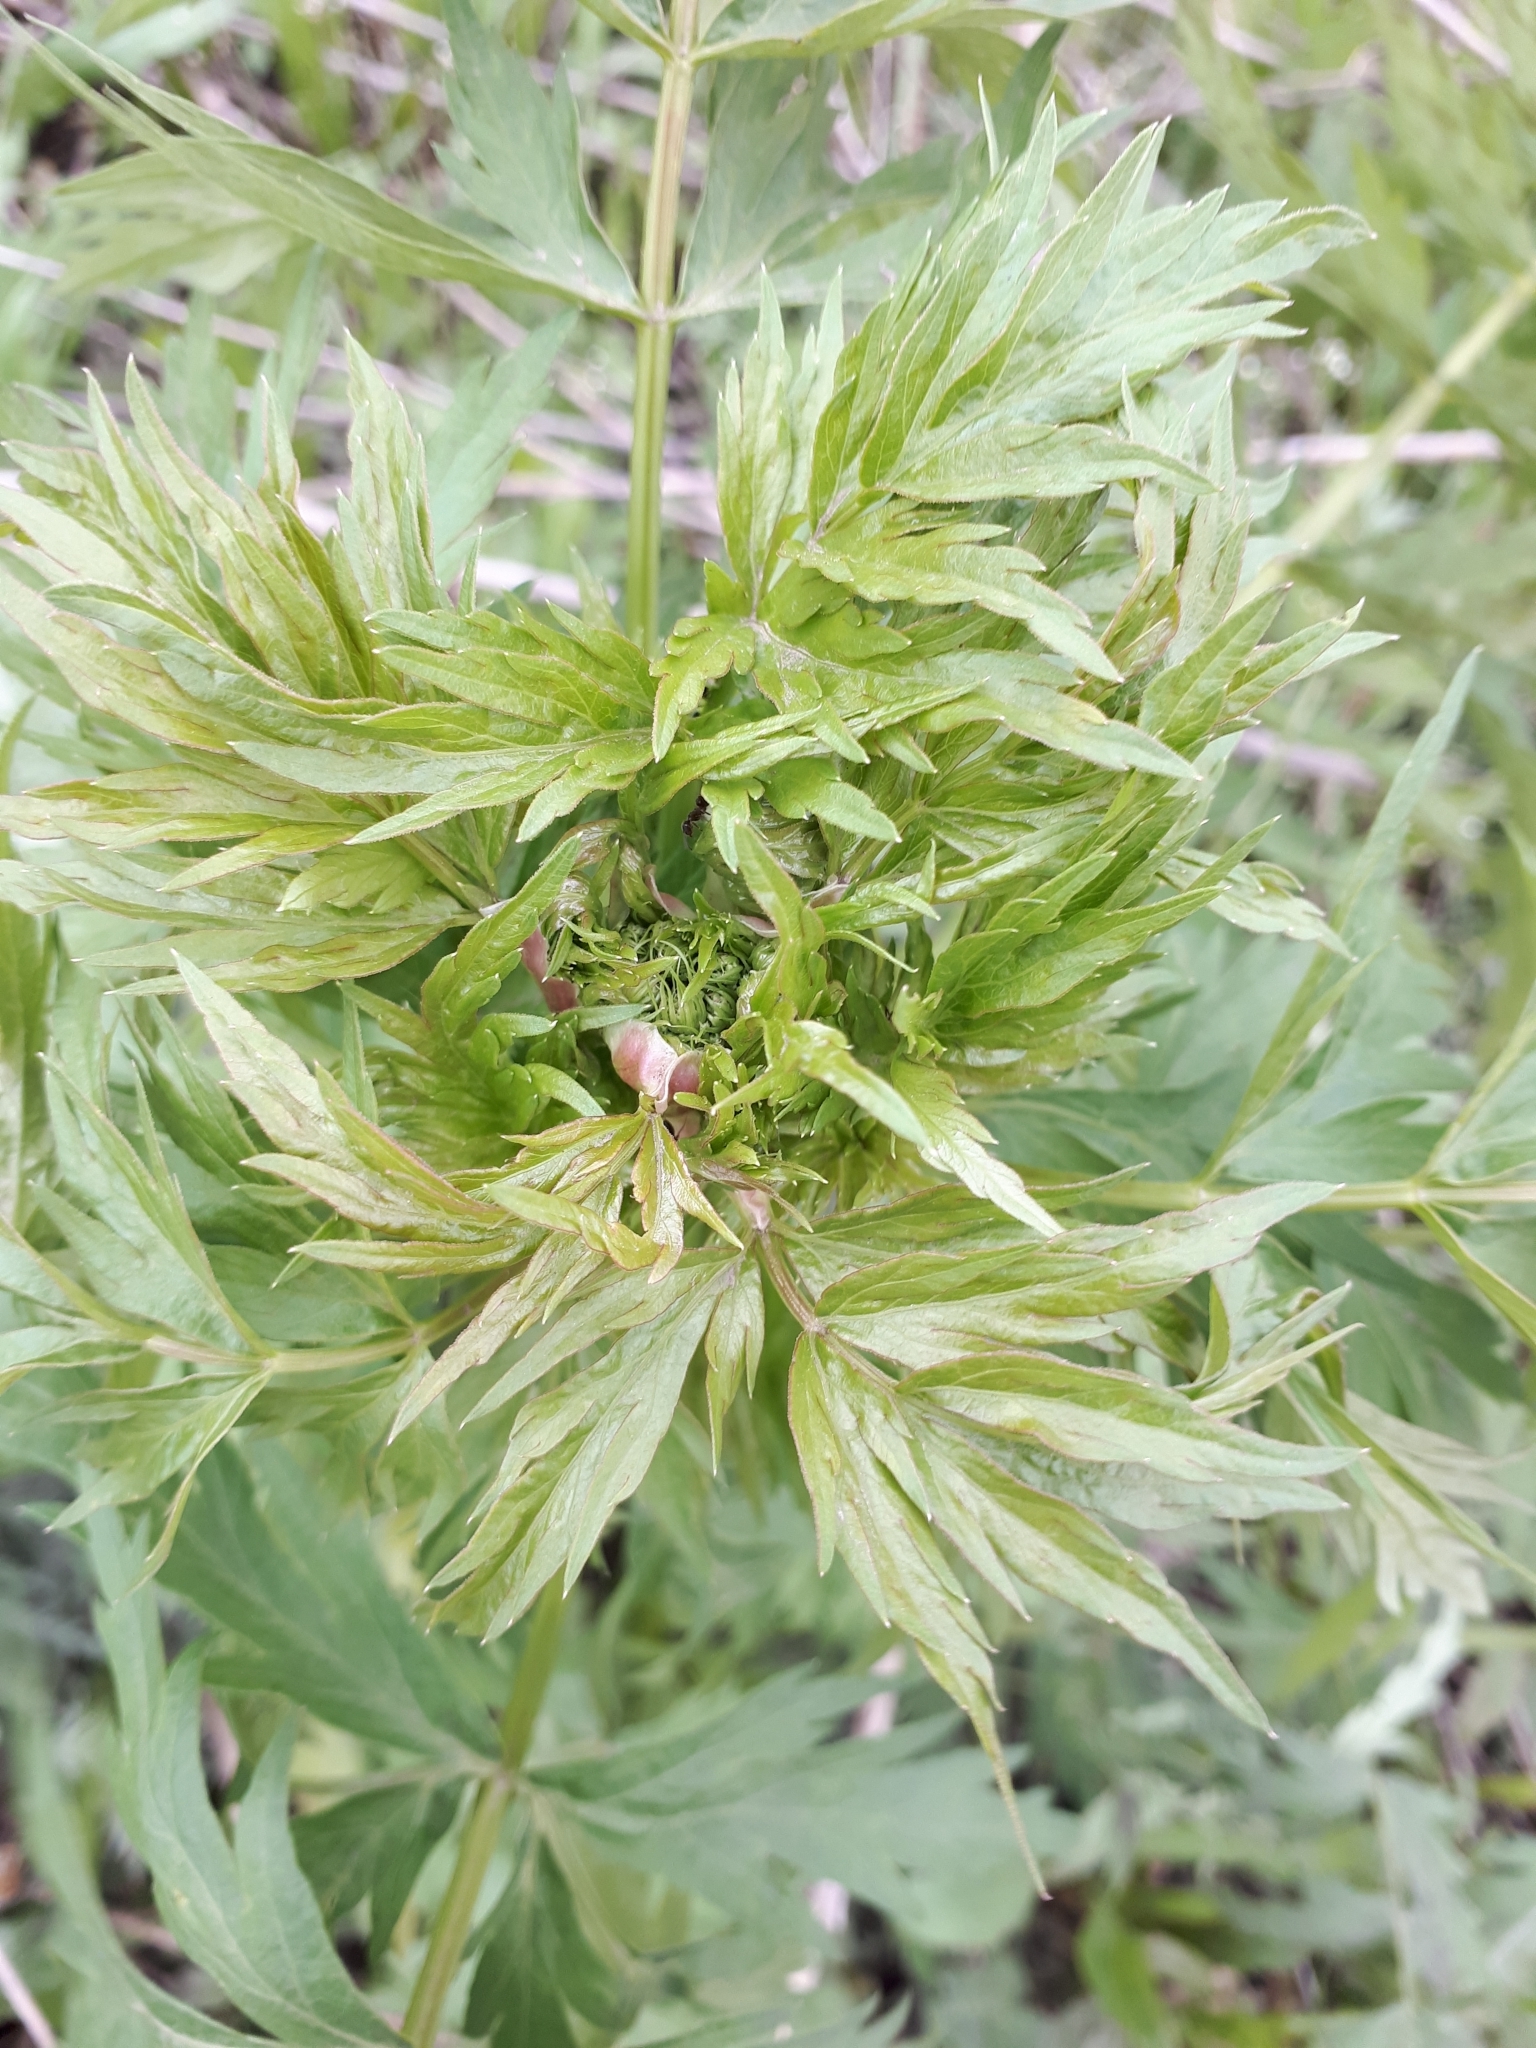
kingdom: Plantae
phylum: Tracheophyta
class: Magnoliopsida
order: Apiales
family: Apiaceae
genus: Seseli
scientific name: Seseli libanotis
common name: Mooncarrot
